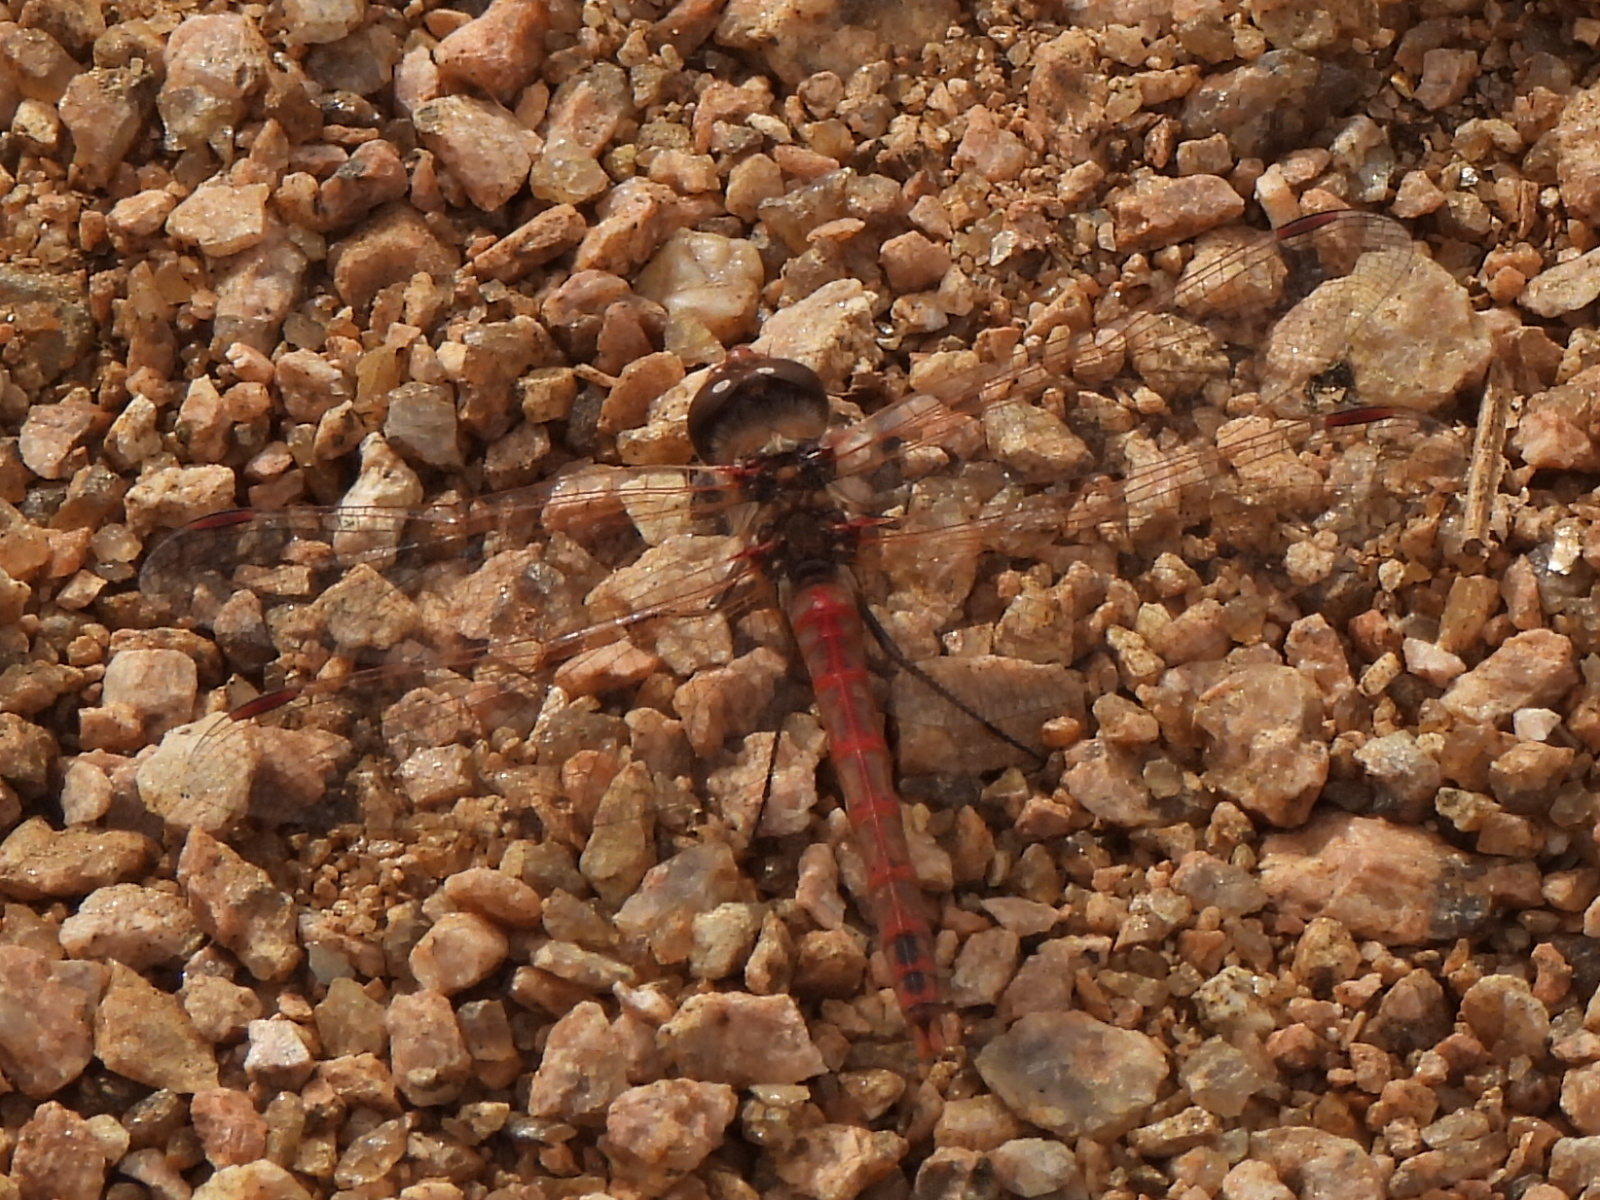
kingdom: Animalia
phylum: Arthropoda
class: Insecta
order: Odonata
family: Libellulidae
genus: Sympetrum
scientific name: Sympetrum corruptum
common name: Variegated meadowhawk
